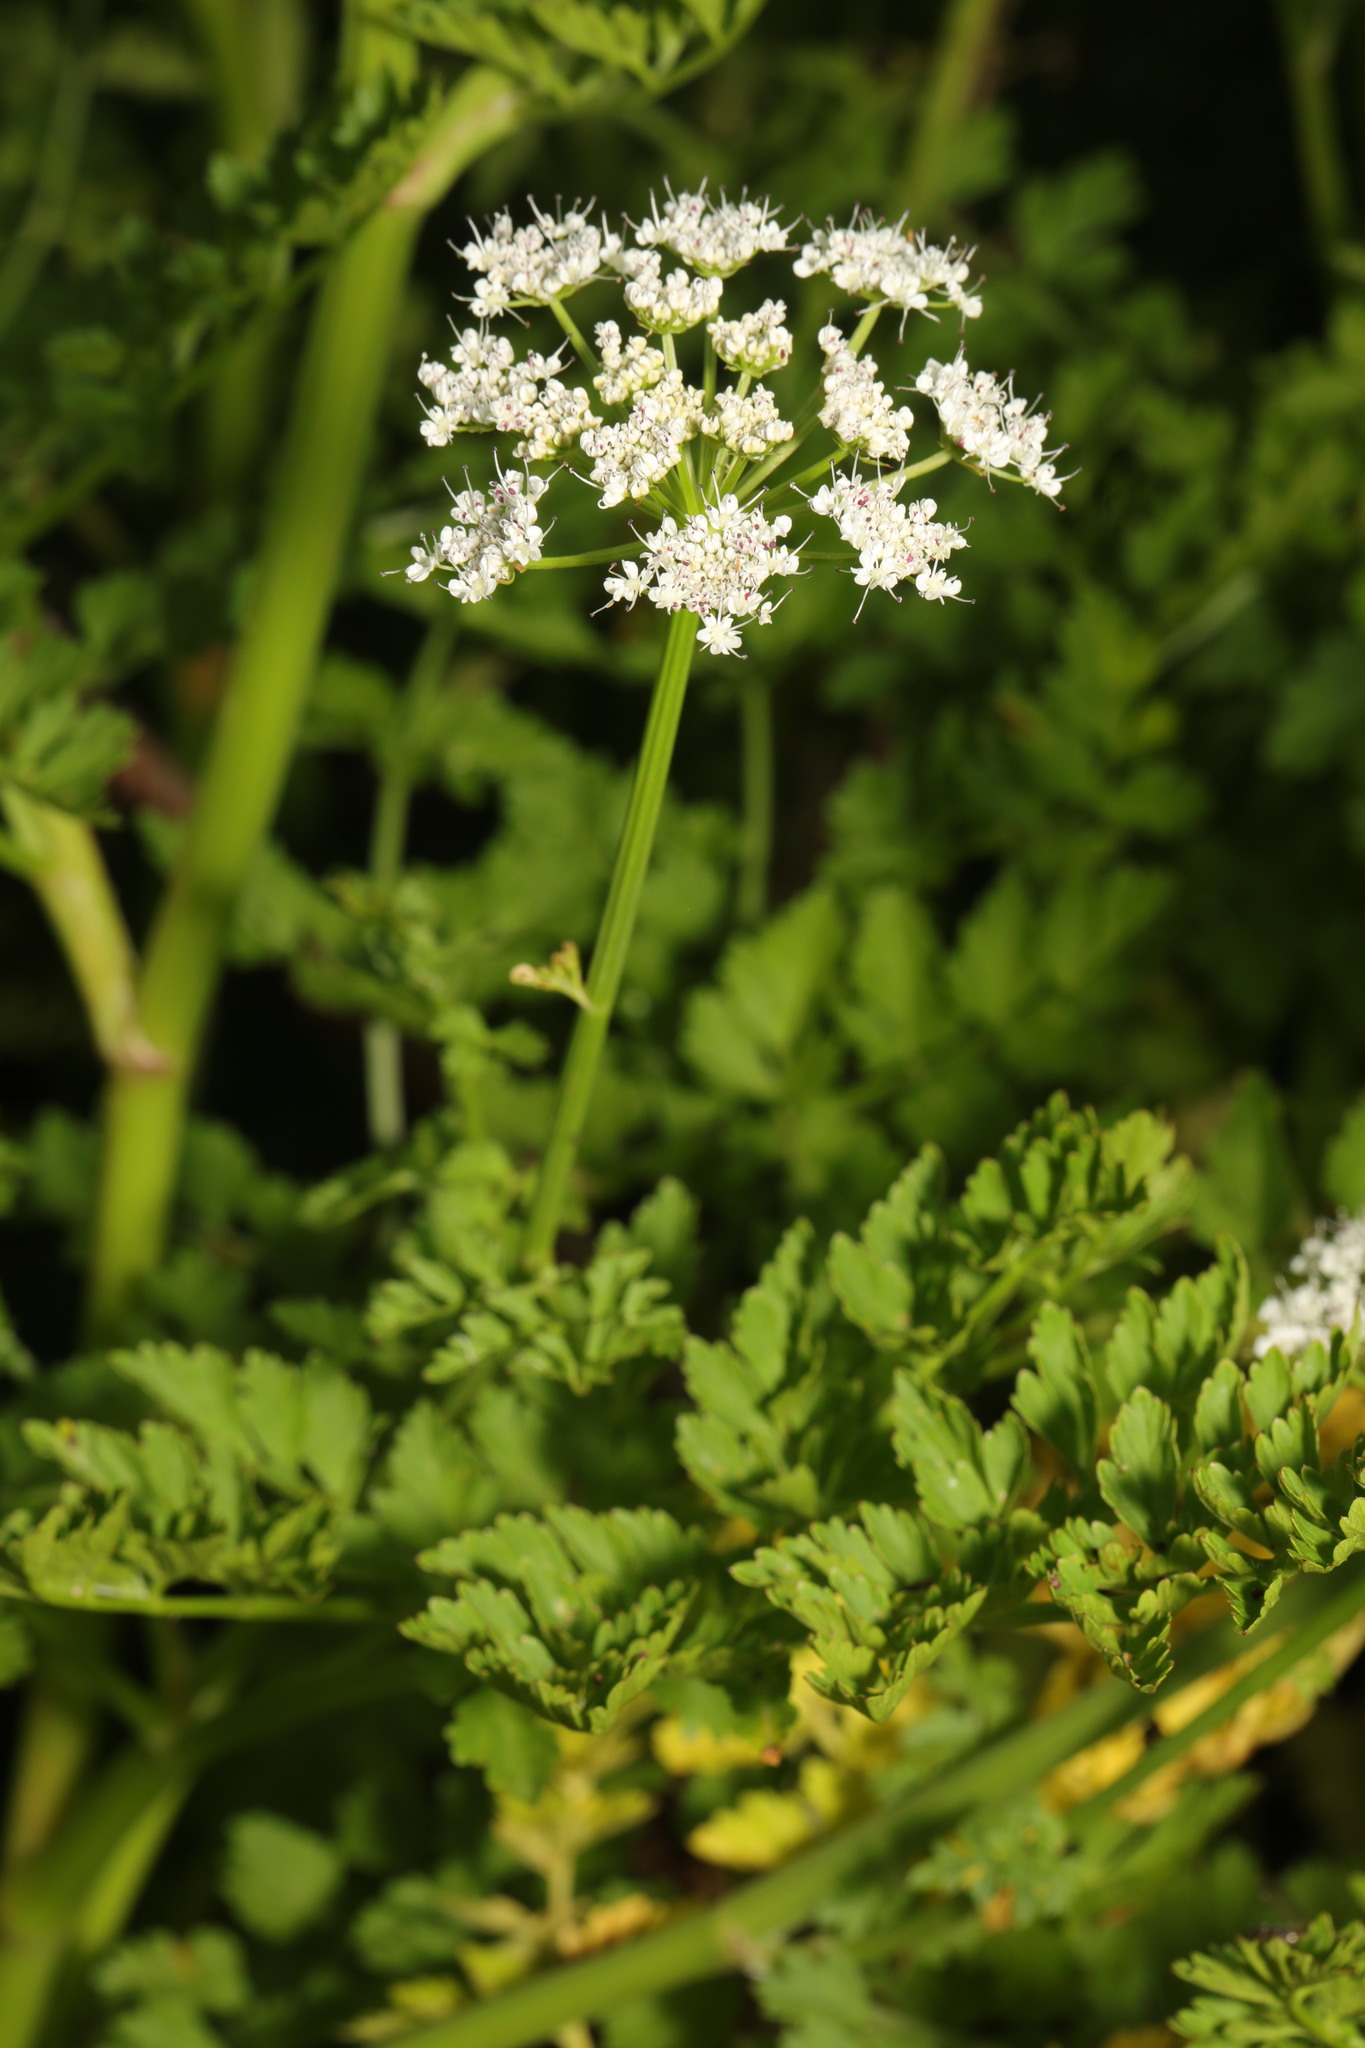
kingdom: Plantae
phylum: Tracheophyta
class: Magnoliopsida
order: Apiales
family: Apiaceae
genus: Oenanthe
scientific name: Oenanthe crocata
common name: Hemlock water-dropwort
